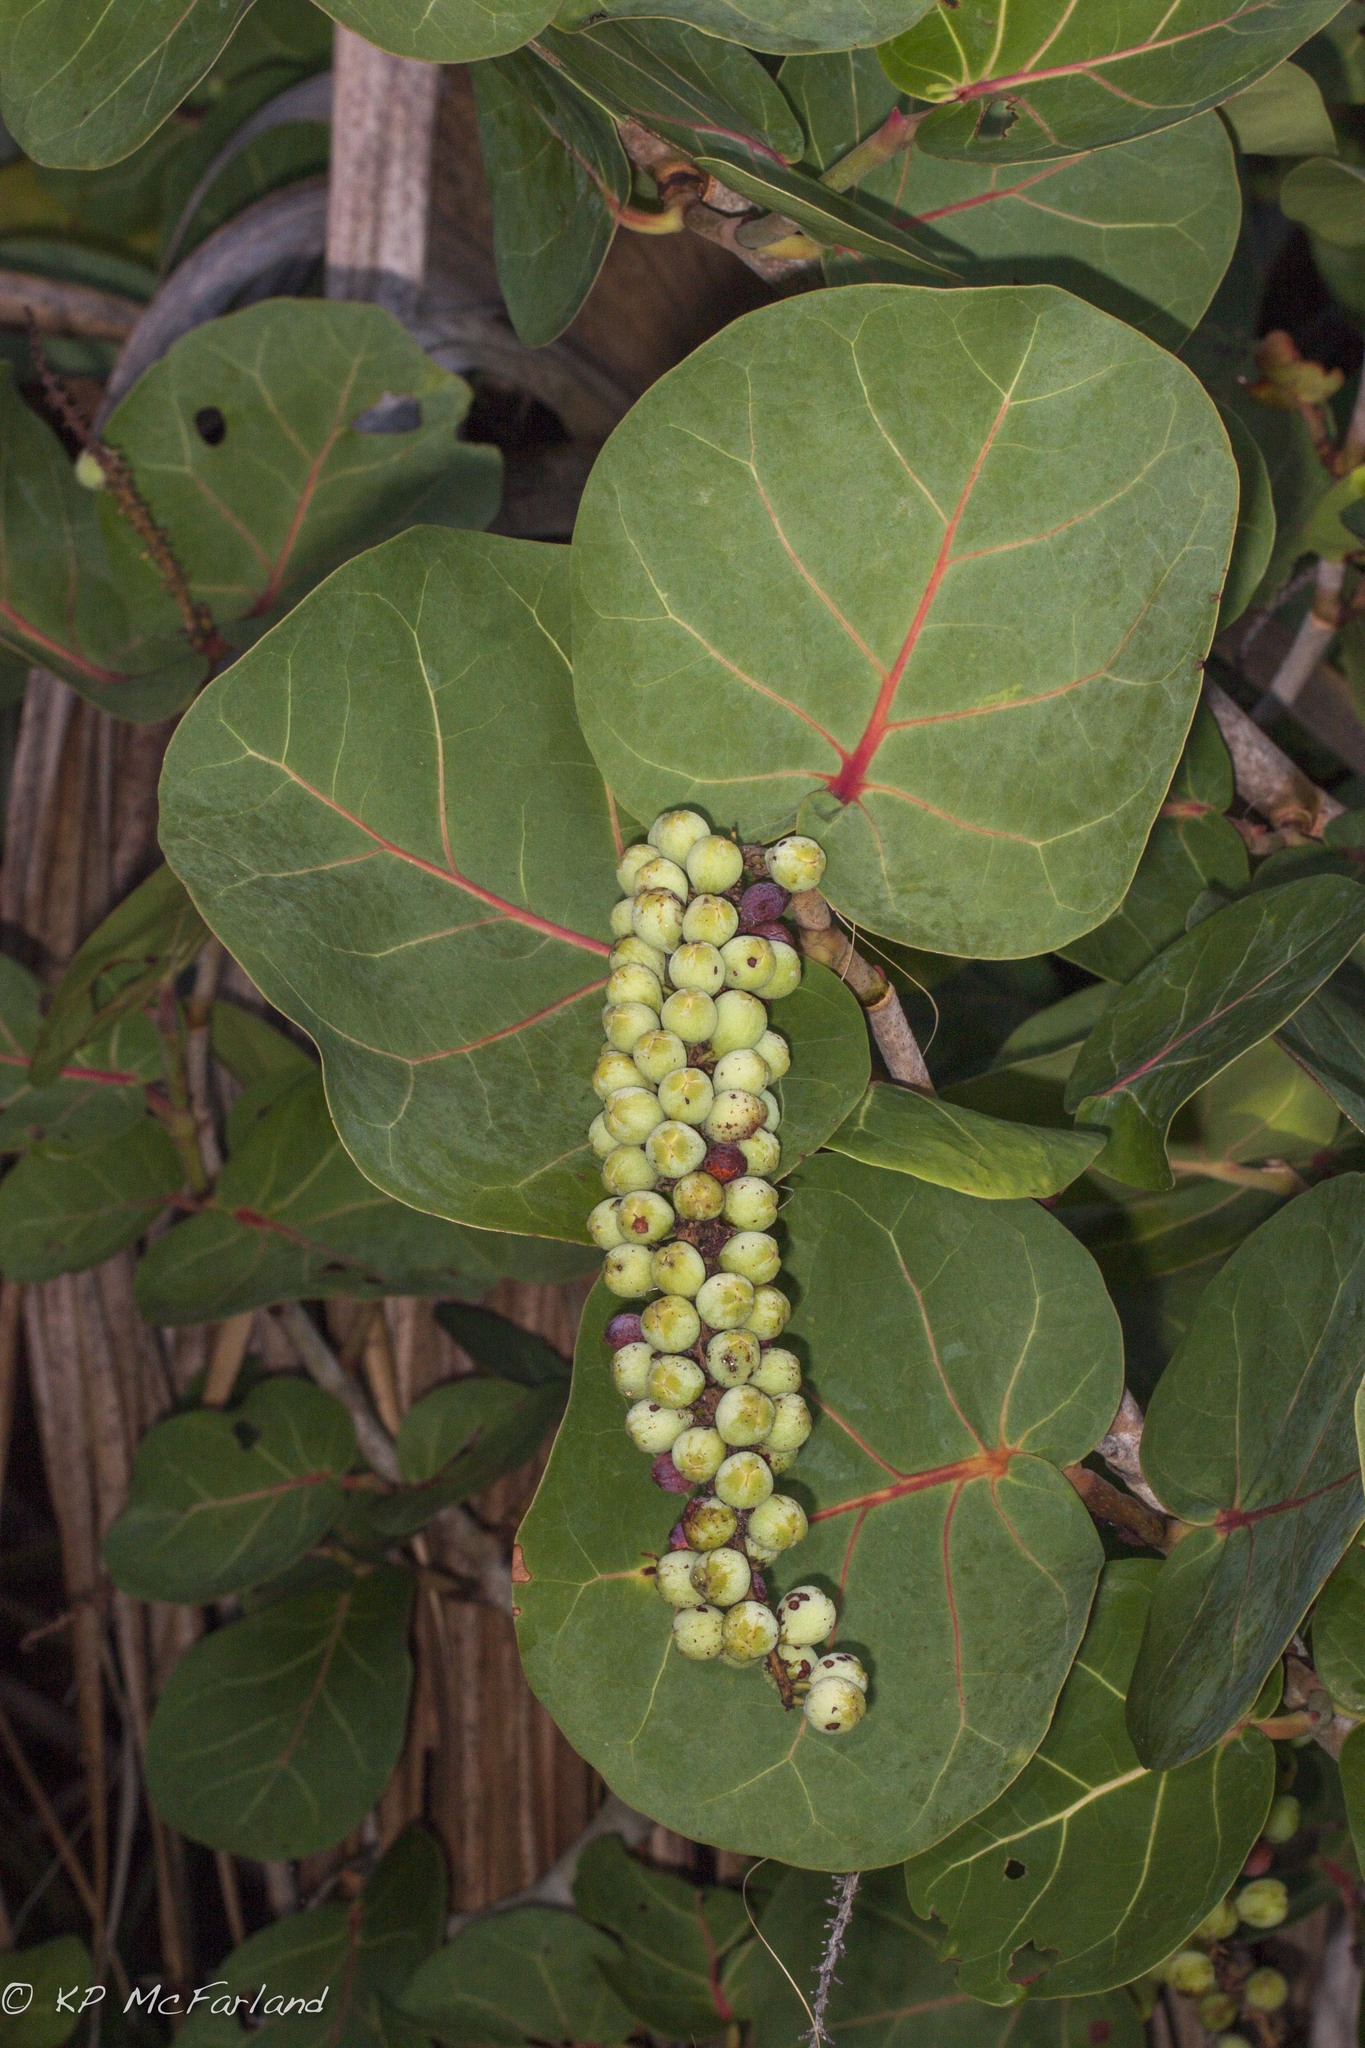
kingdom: Plantae
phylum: Tracheophyta
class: Magnoliopsida
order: Caryophyllales
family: Polygonaceae
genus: Coccoloba
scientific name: Coccoloba uvifera
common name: Seagrape
